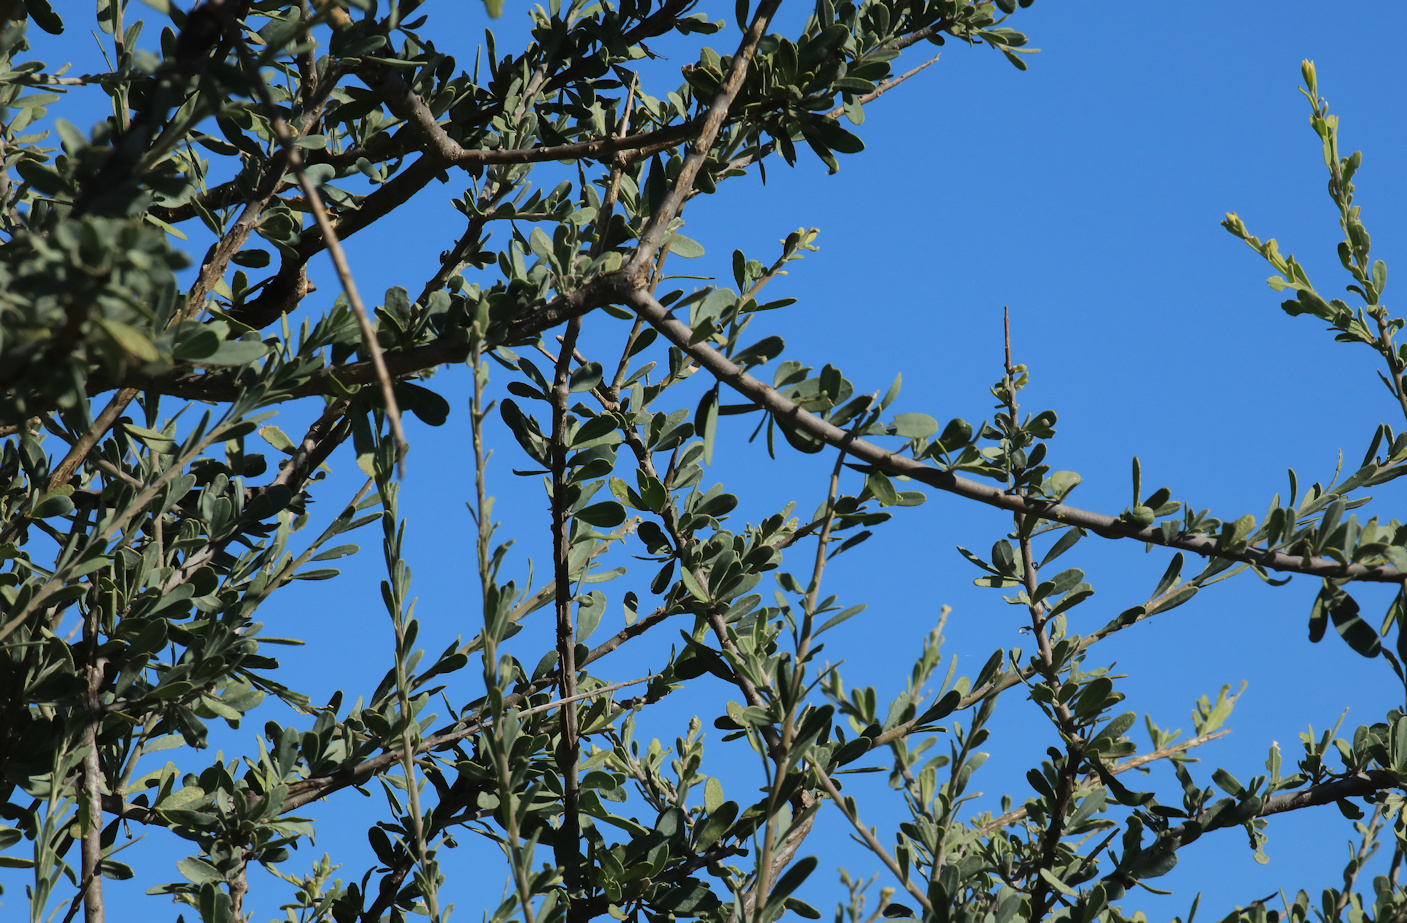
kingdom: Plantae
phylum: Tracheophyta
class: Magnoliopsida
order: Brassicales
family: Capparaceae
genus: Boscia
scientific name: Boscia albitrunca
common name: Caper bush
